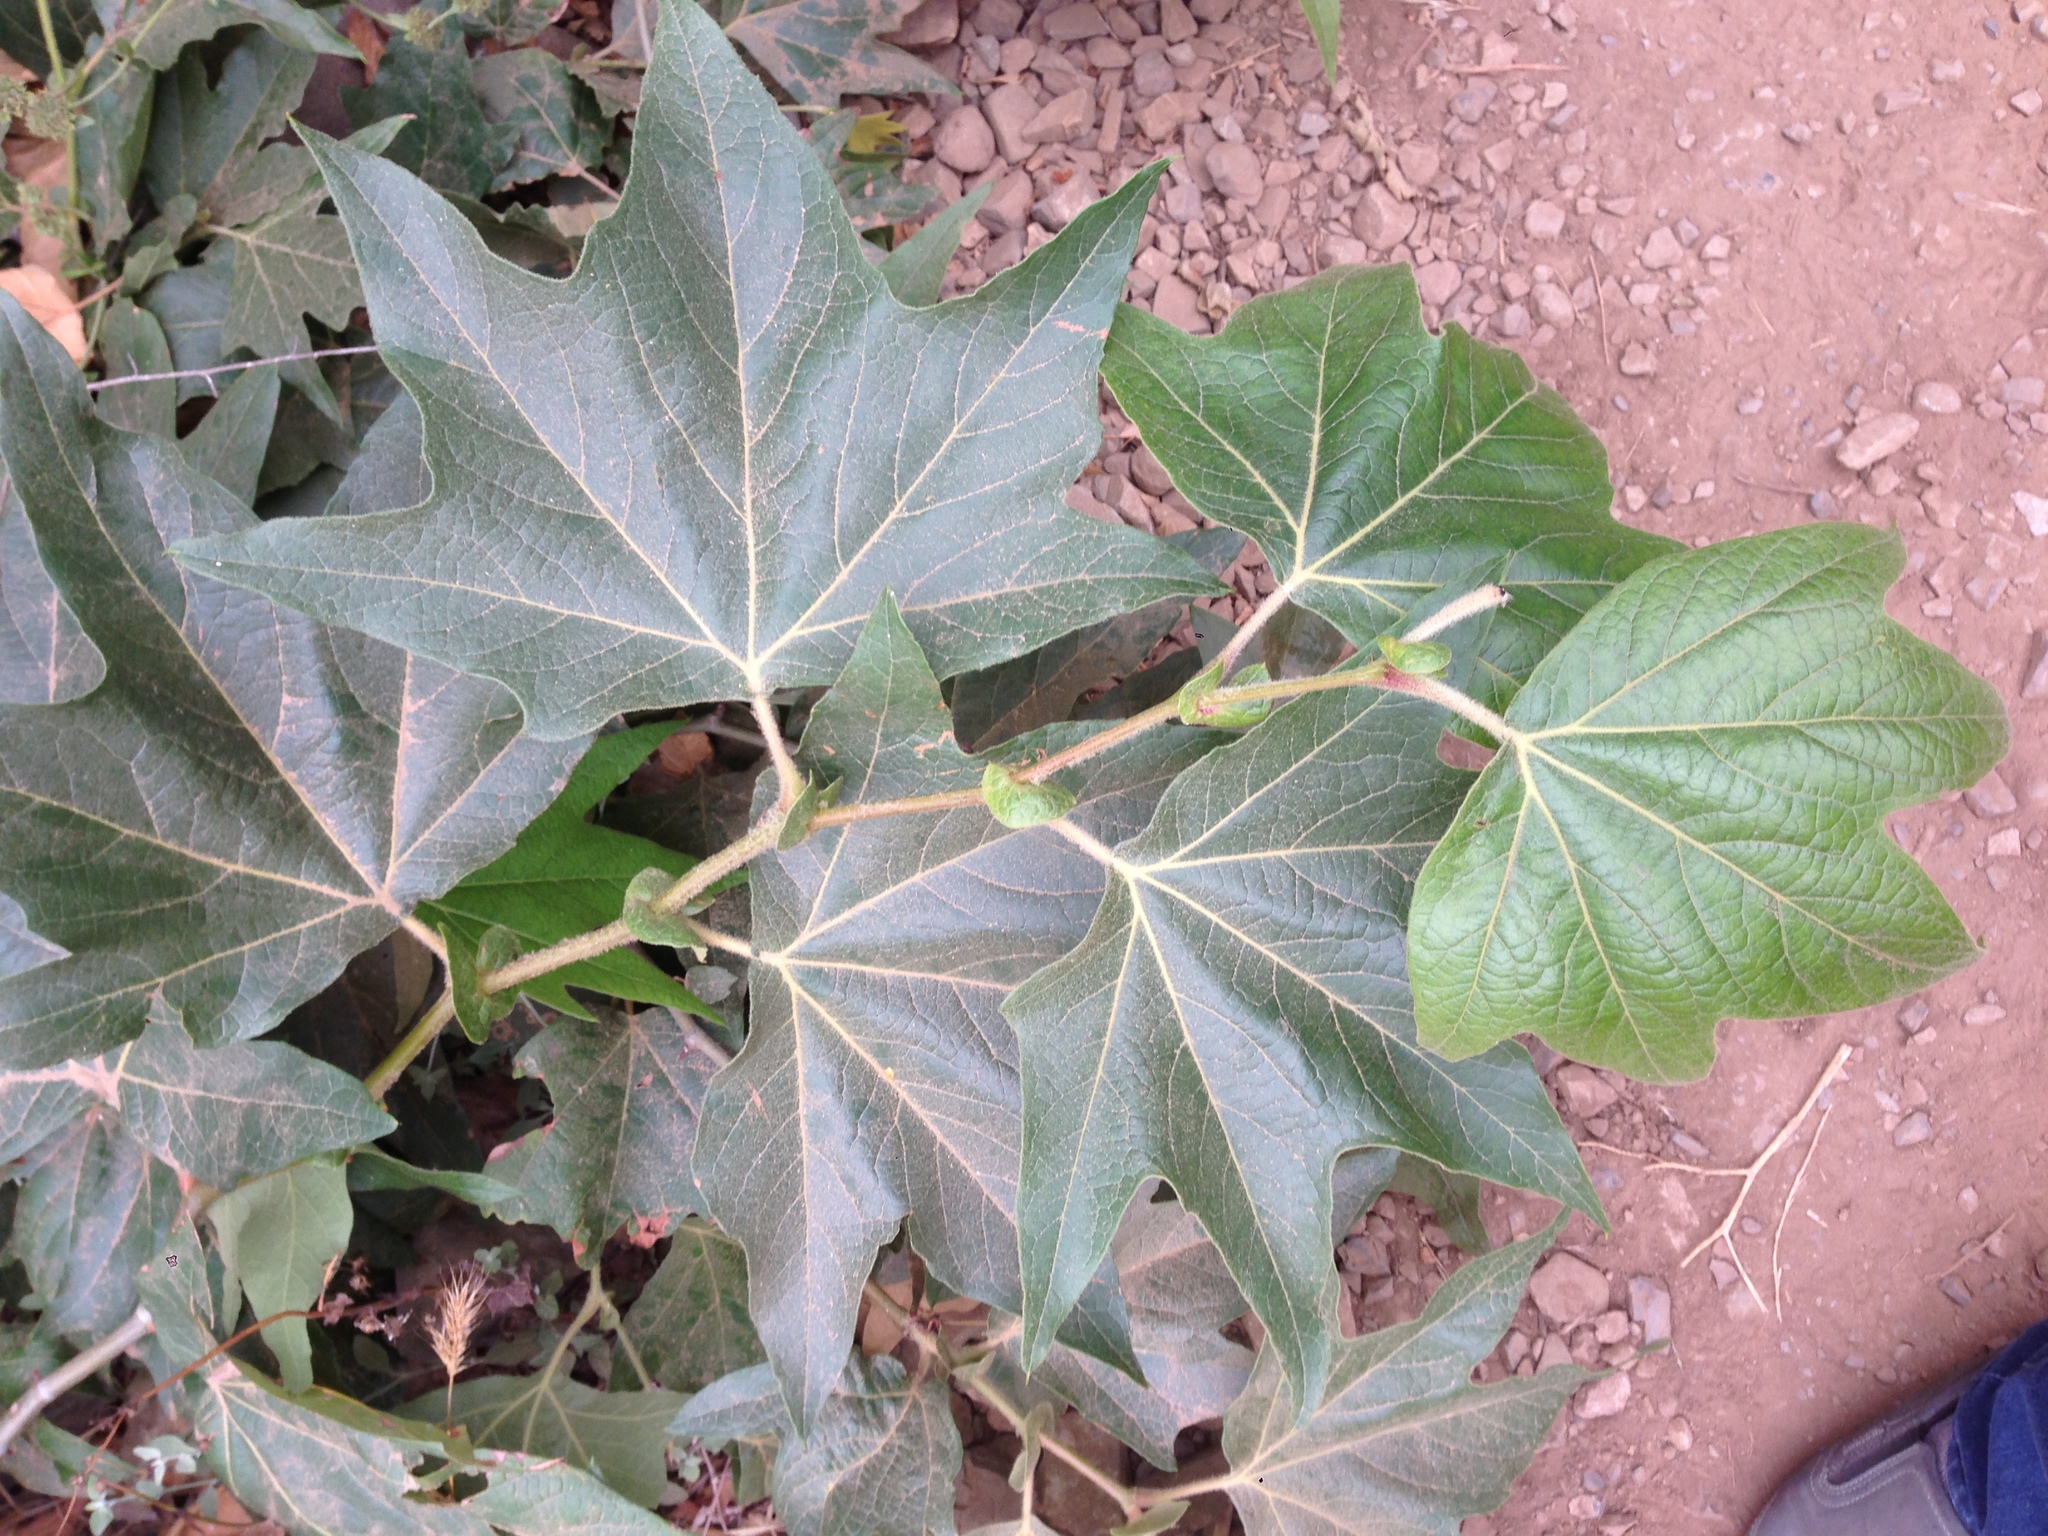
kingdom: Plantae
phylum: Tracheophyta
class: Magnoliopsida
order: Proteales
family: Platanaceae
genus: Platanus
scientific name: Platanus racemosa
